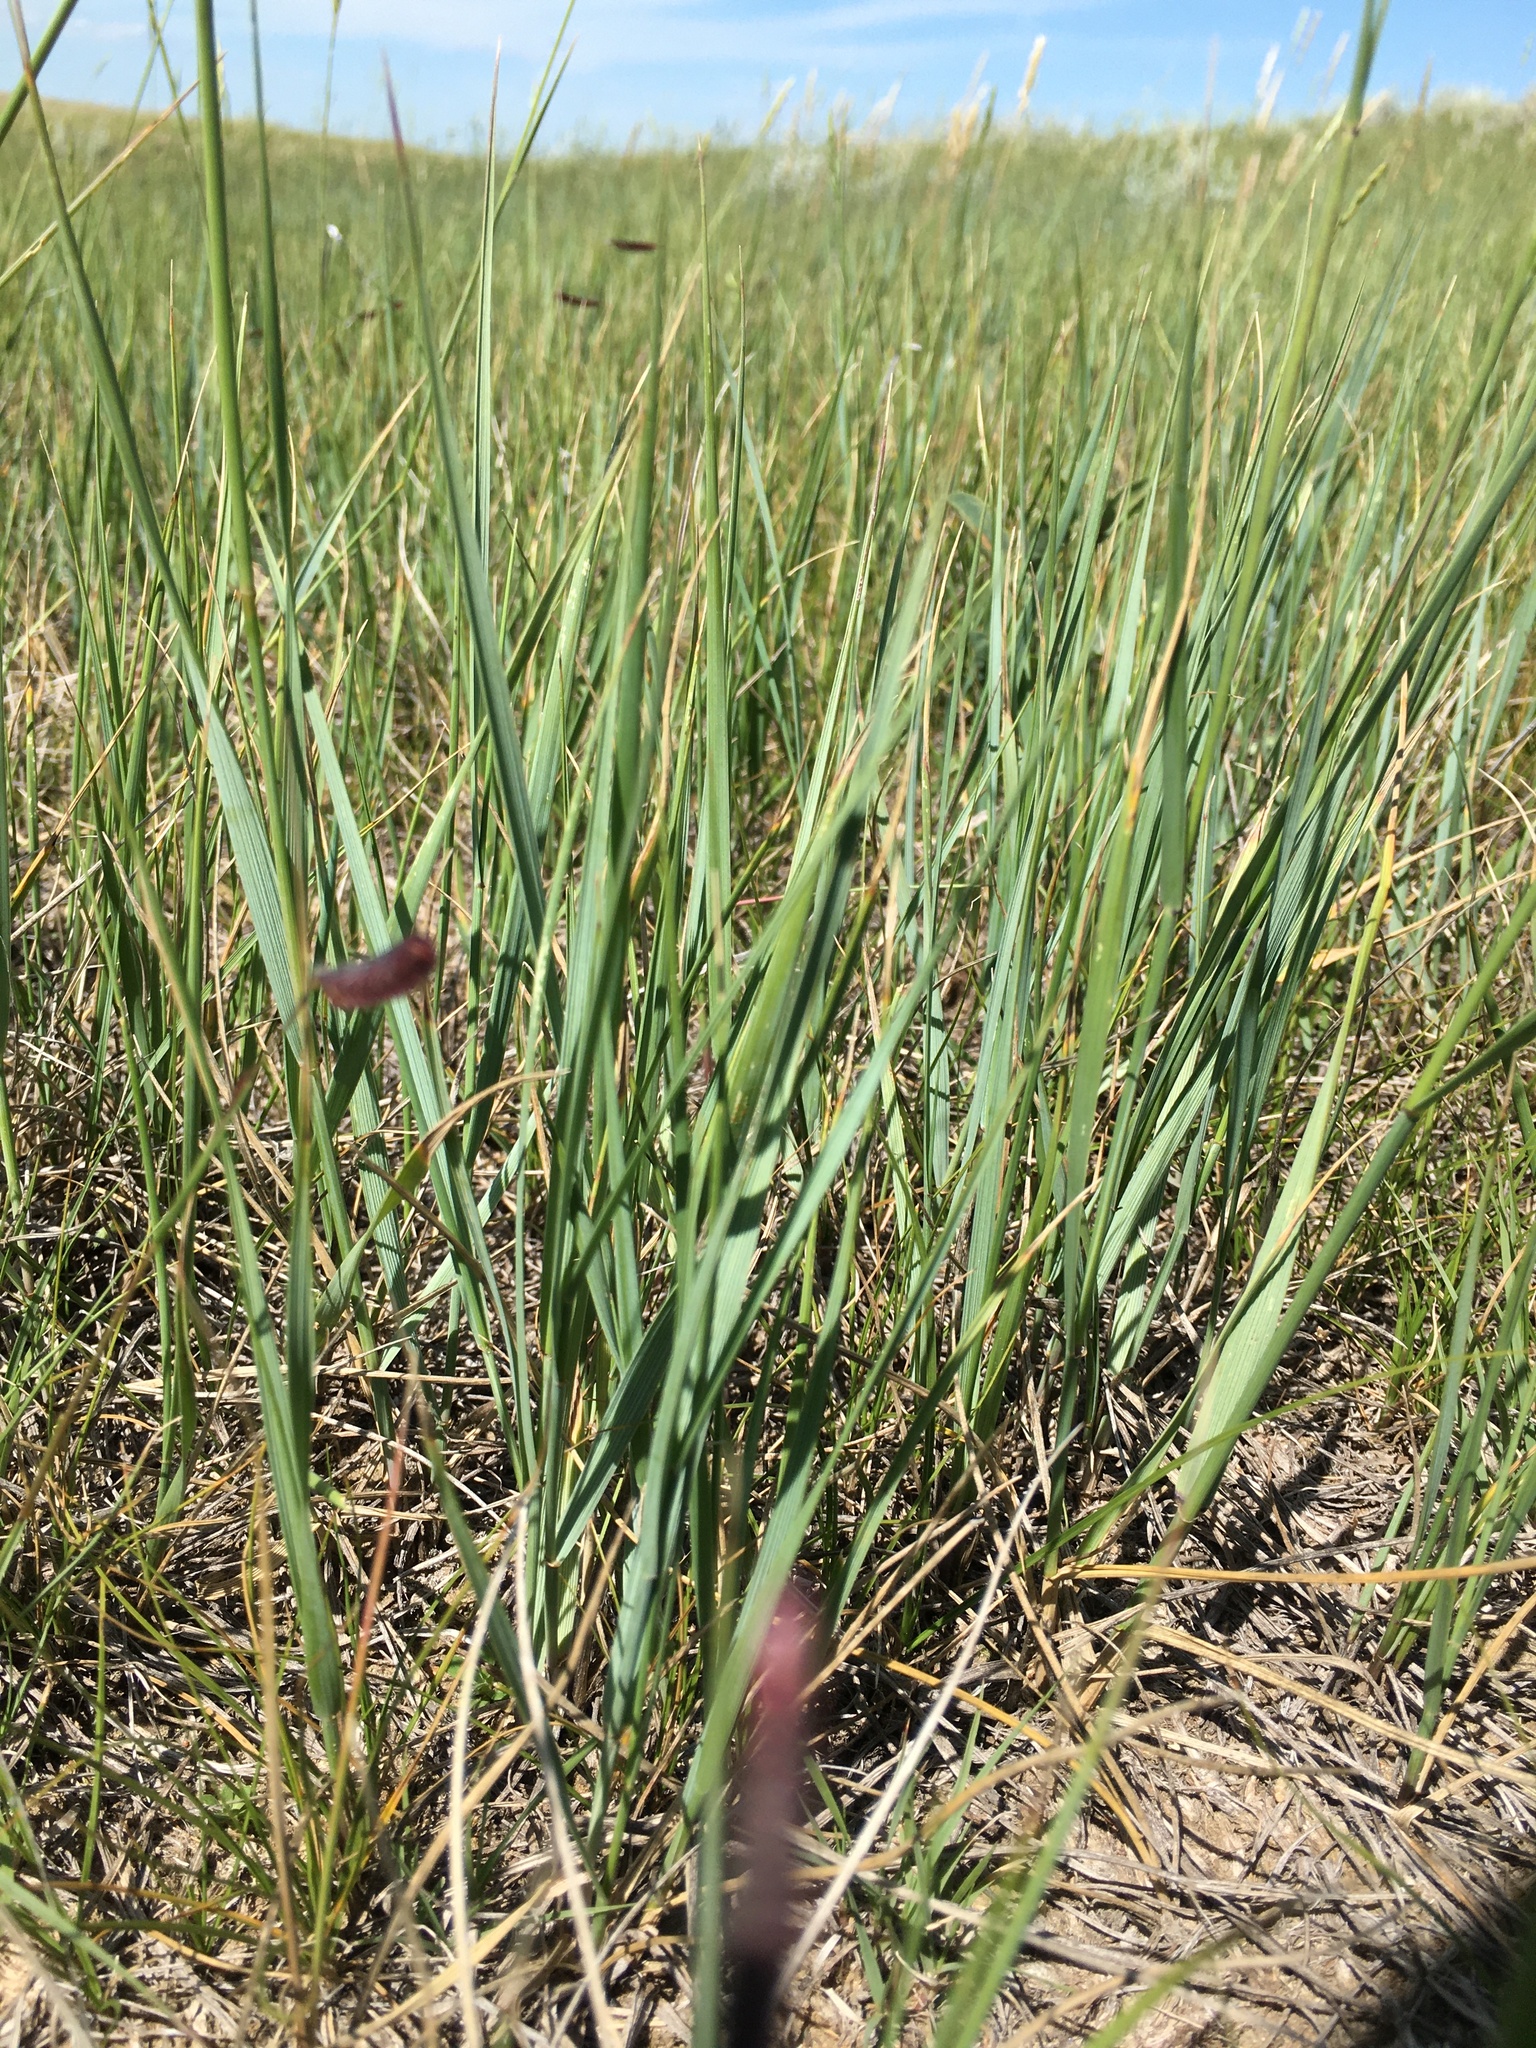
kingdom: Plantae
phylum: Tracheophyta
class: Liliopsida
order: Poales
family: Poaceae
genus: Elymus
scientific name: Elymus smithii
